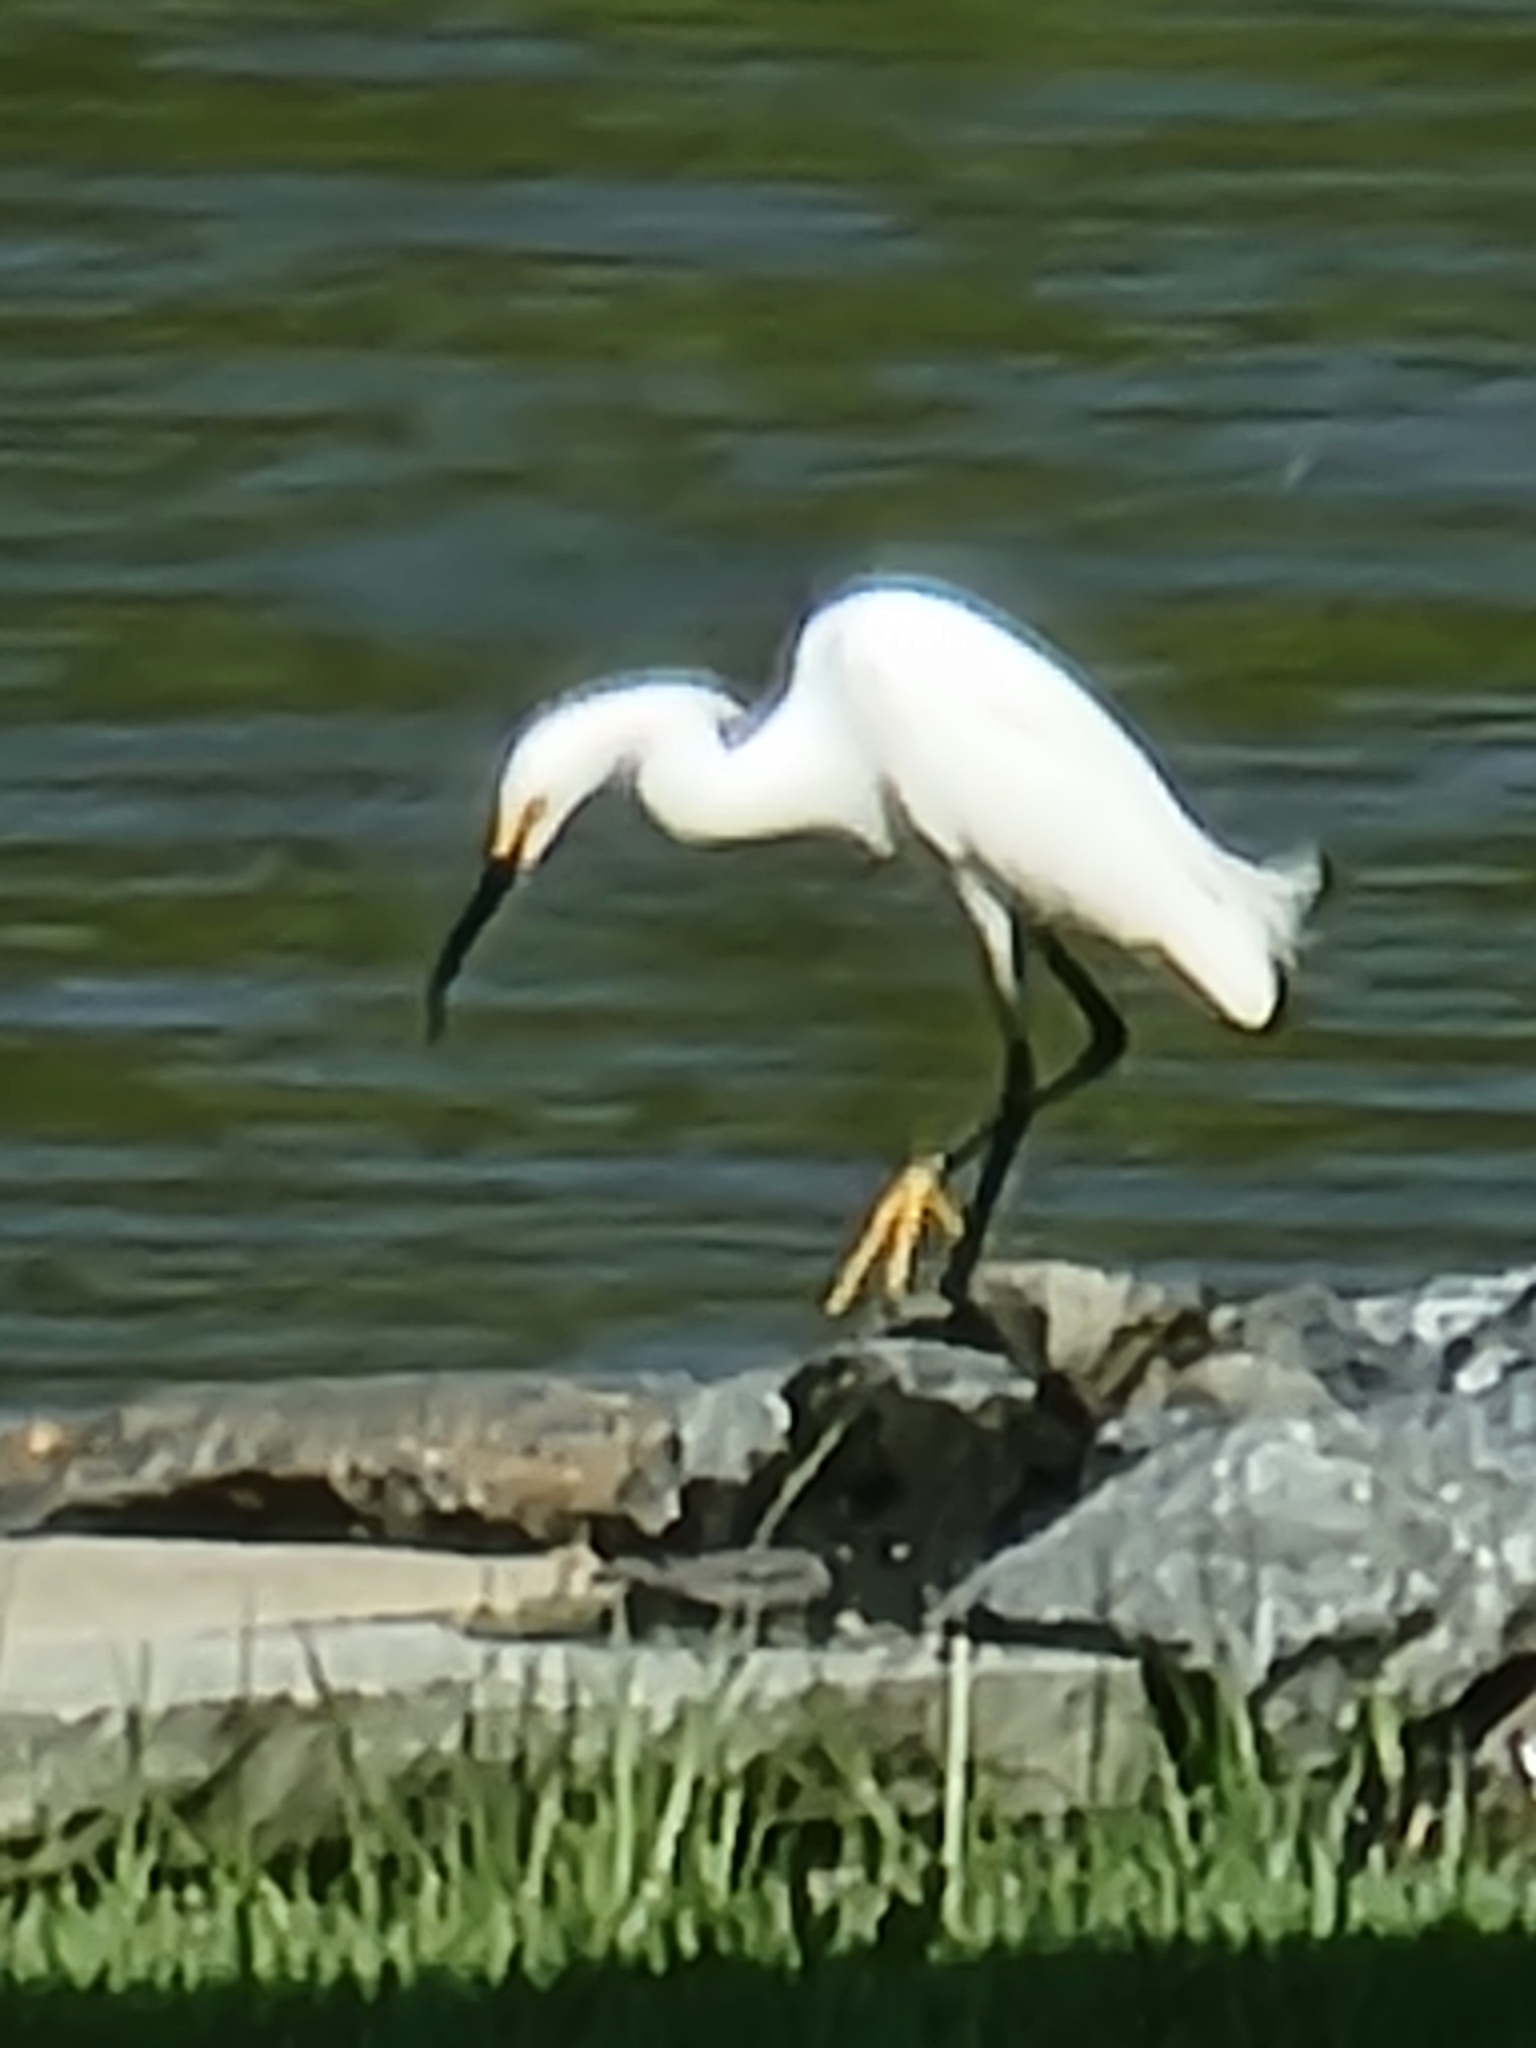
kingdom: Animalia
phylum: Chordata
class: Aves
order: Pelecaniformes
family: Ardeidae
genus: Egretta
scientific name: Egretta thula
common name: Snowy egret
